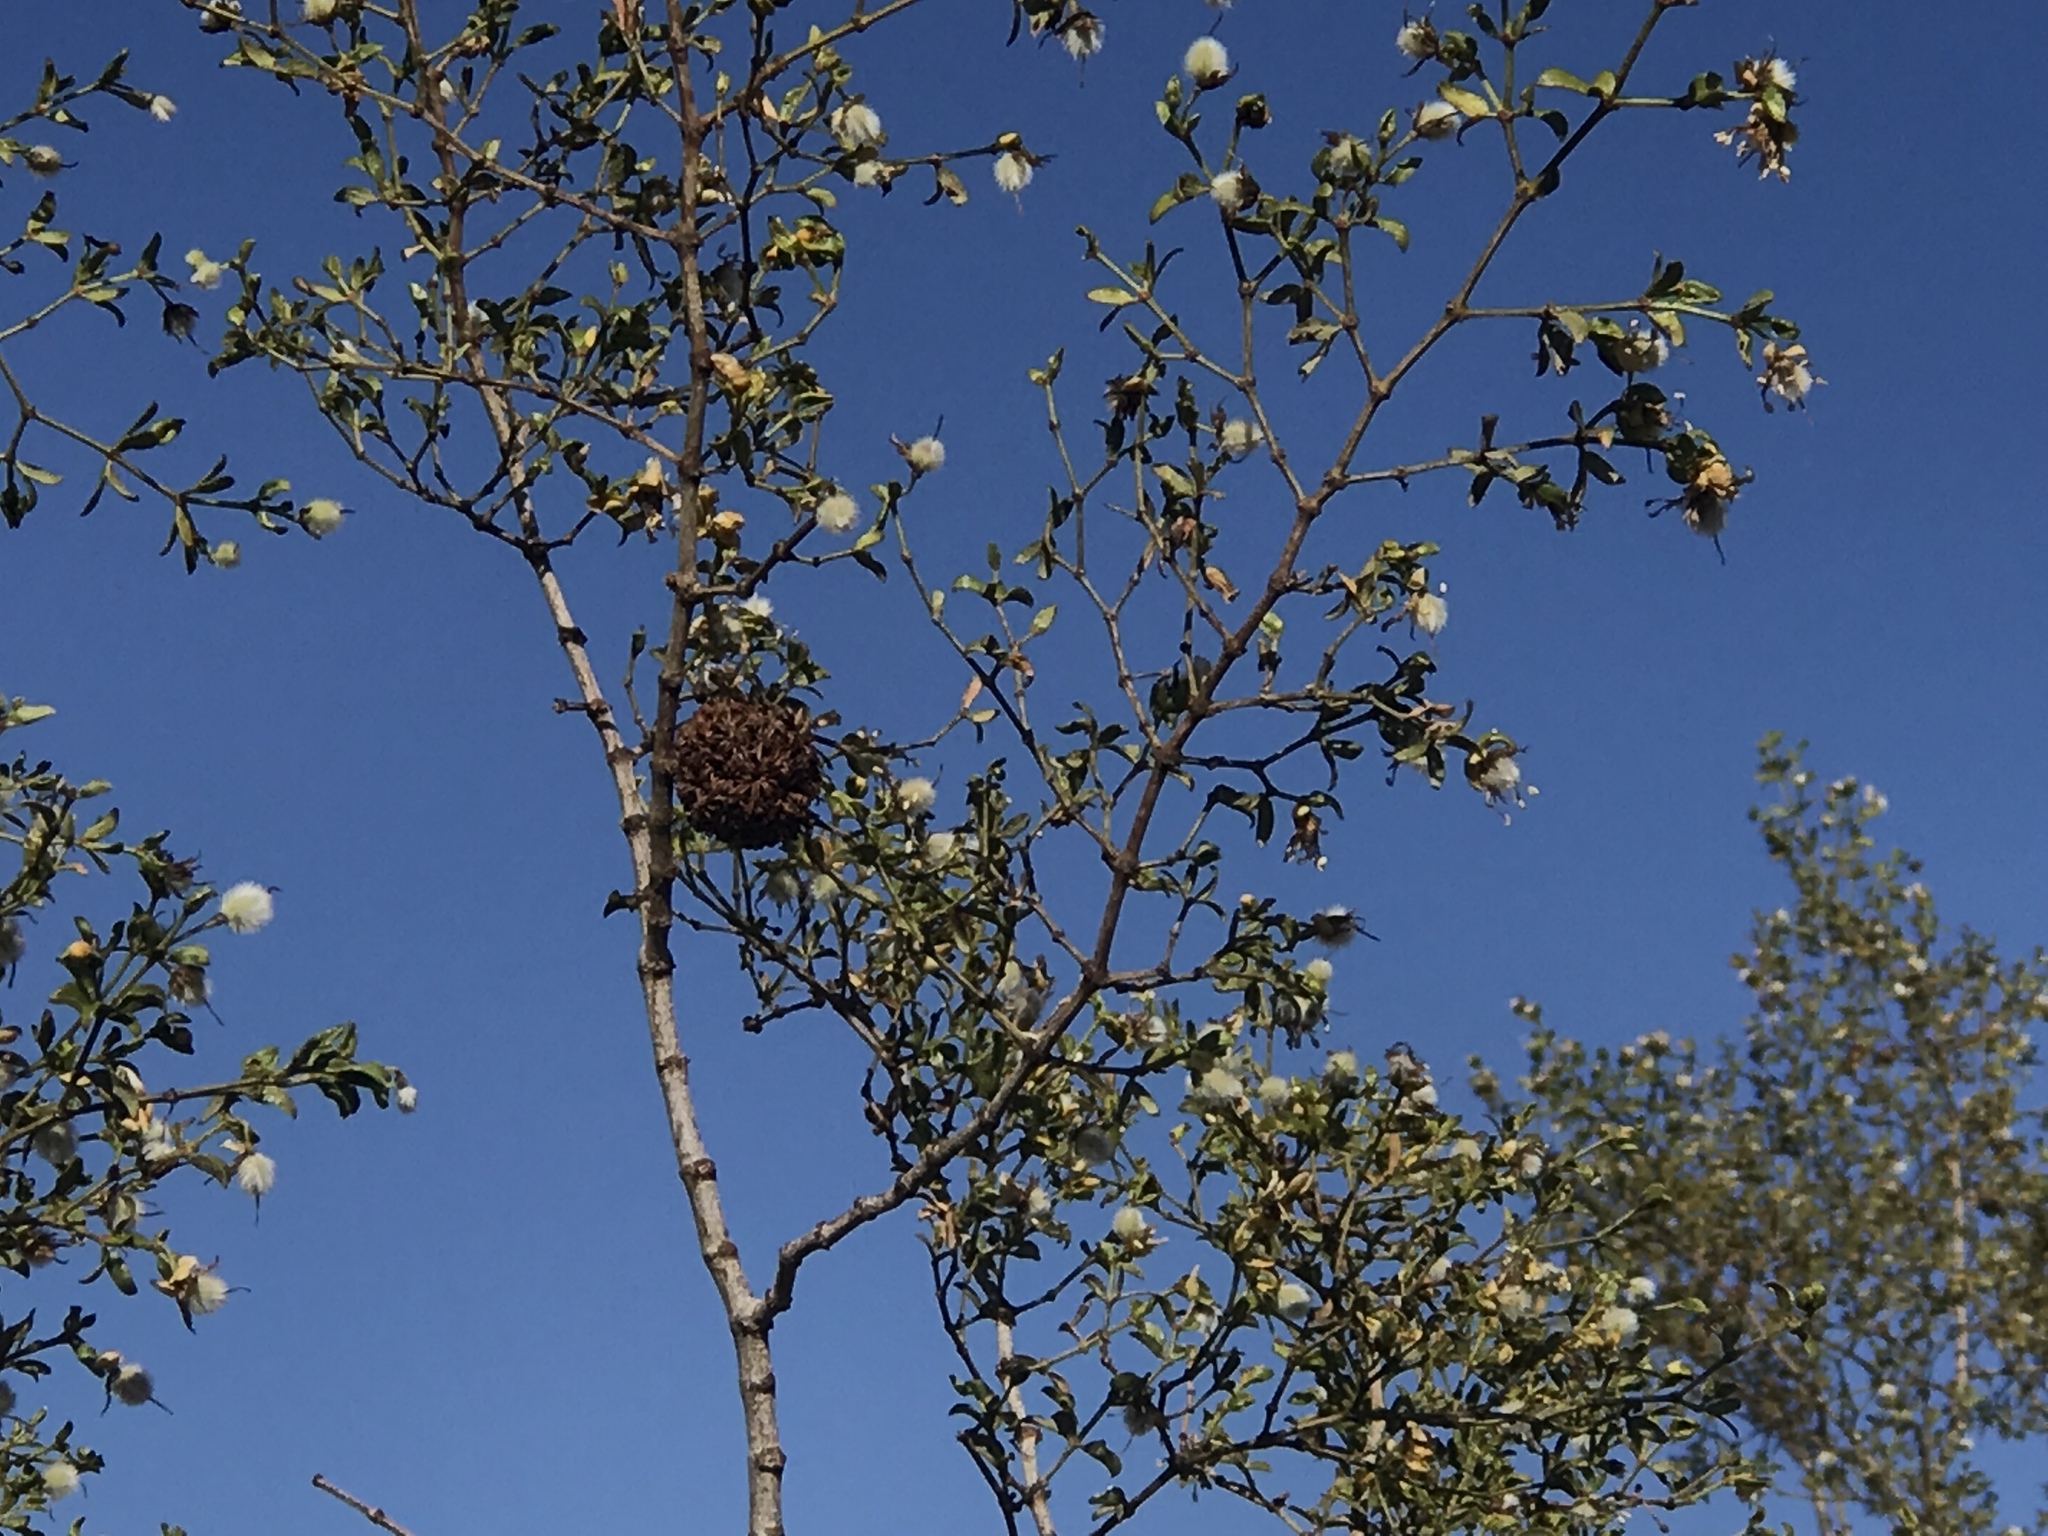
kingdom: Animalia
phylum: Arthropoda
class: Insecta
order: Diptera
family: Cecidomyiidae
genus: Asphondylia
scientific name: Asphondylia auripila
